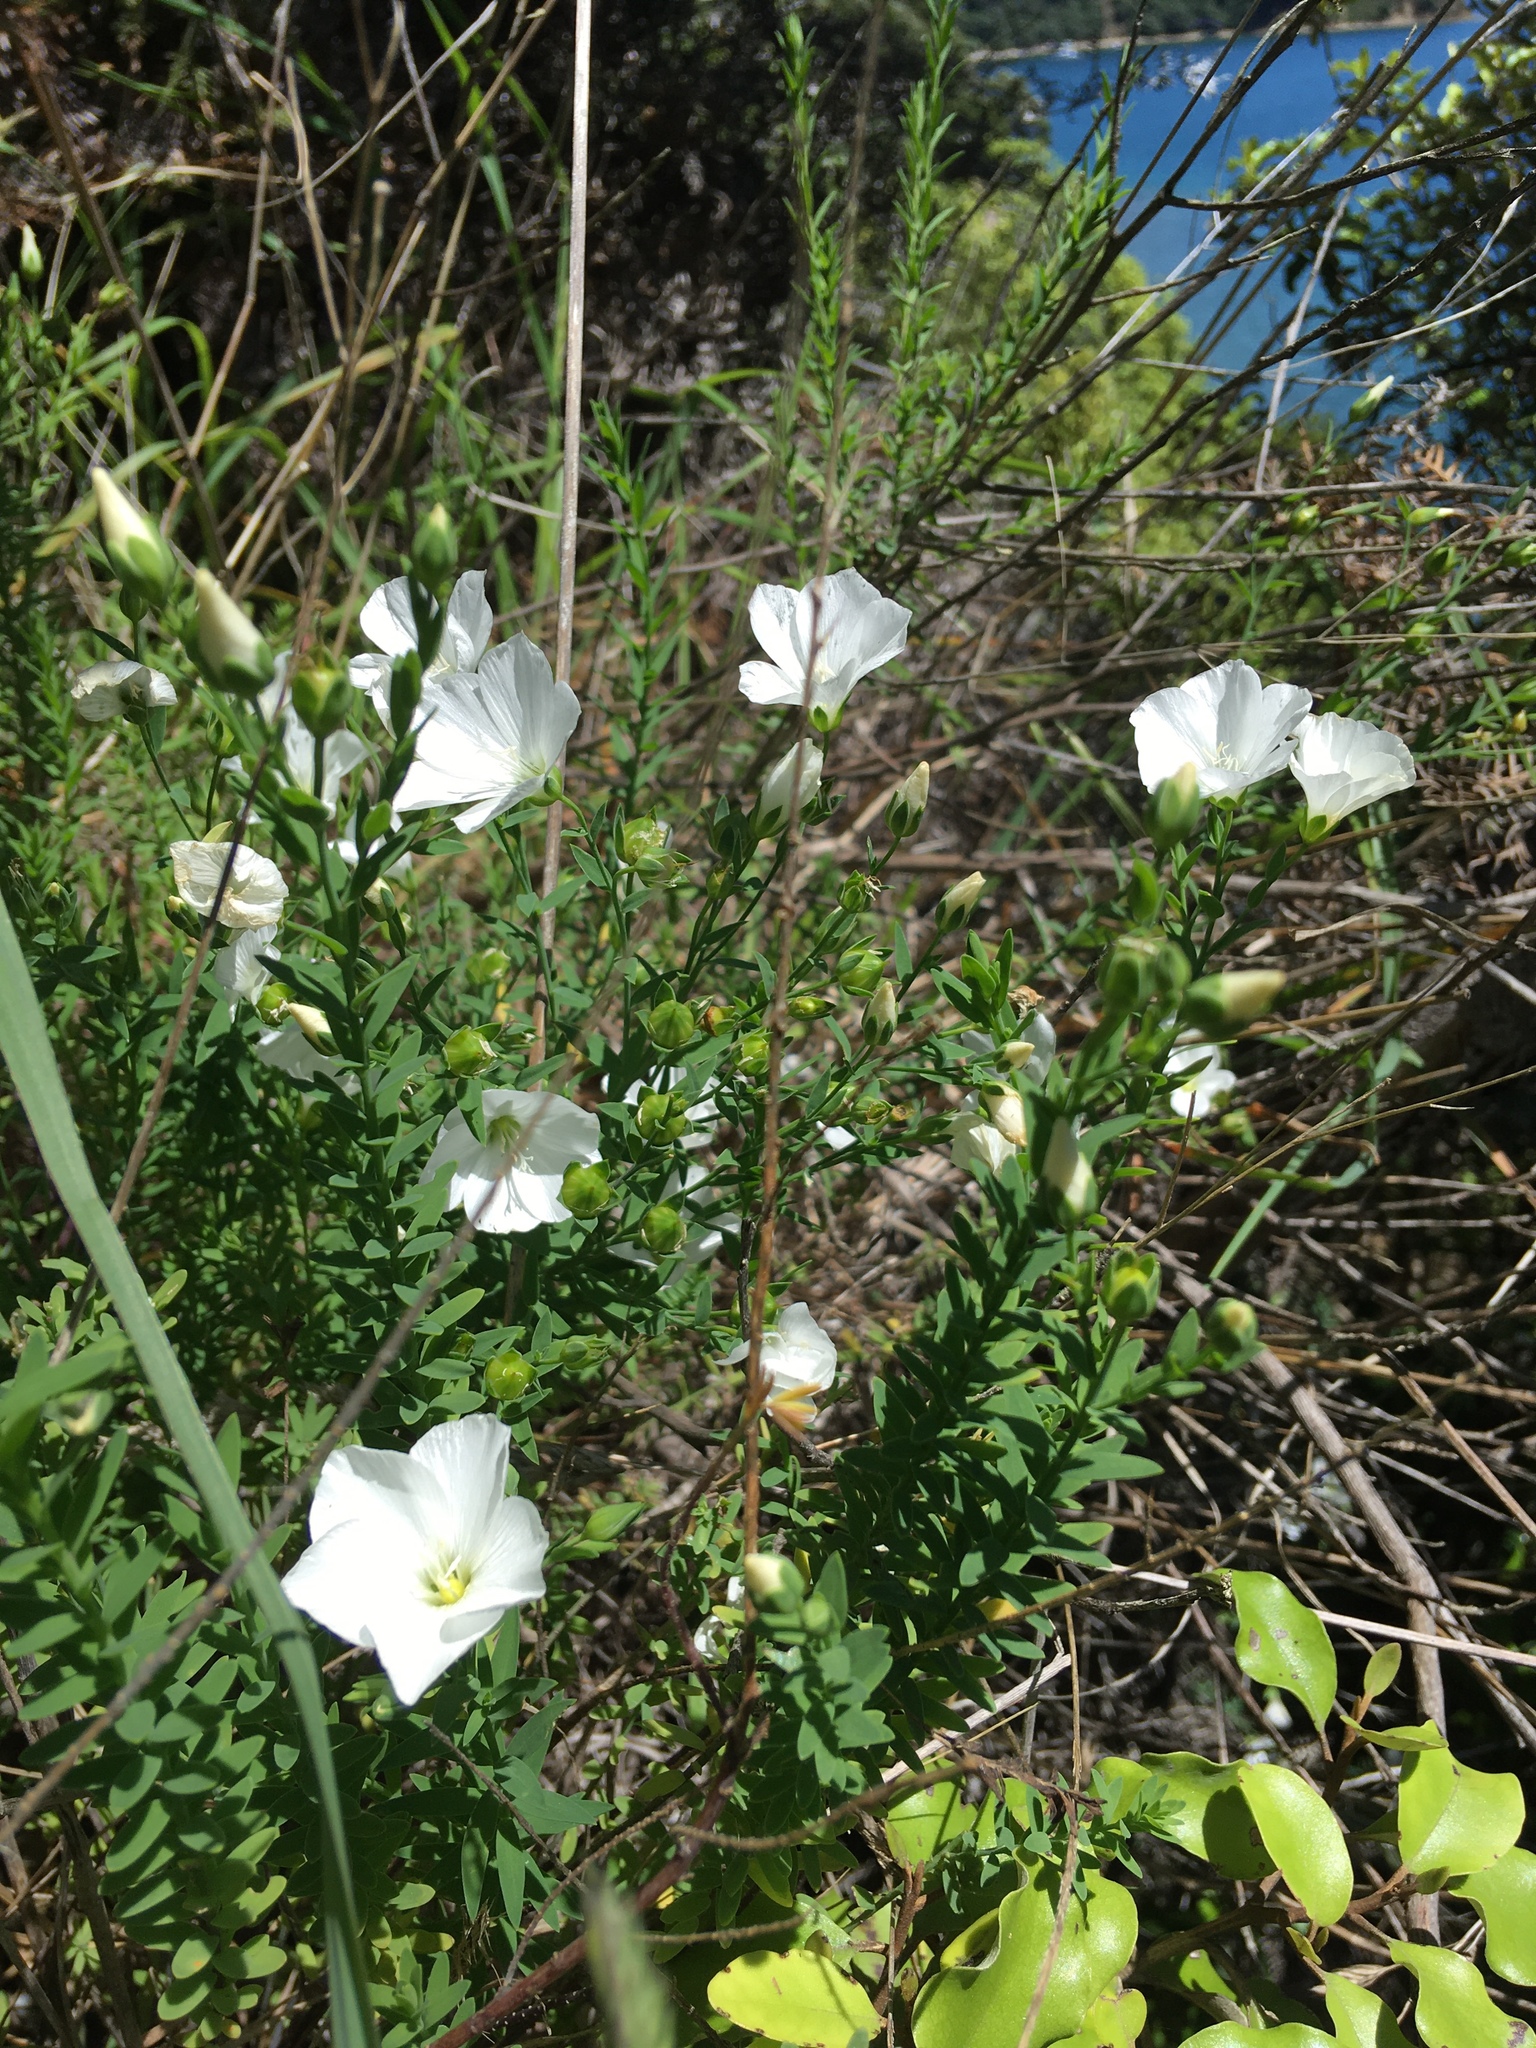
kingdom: Plantae
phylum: Tracheophyta
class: Magnoliopsida
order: Malpighiales
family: Linaceae
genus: Linum
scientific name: Linum monogynum
